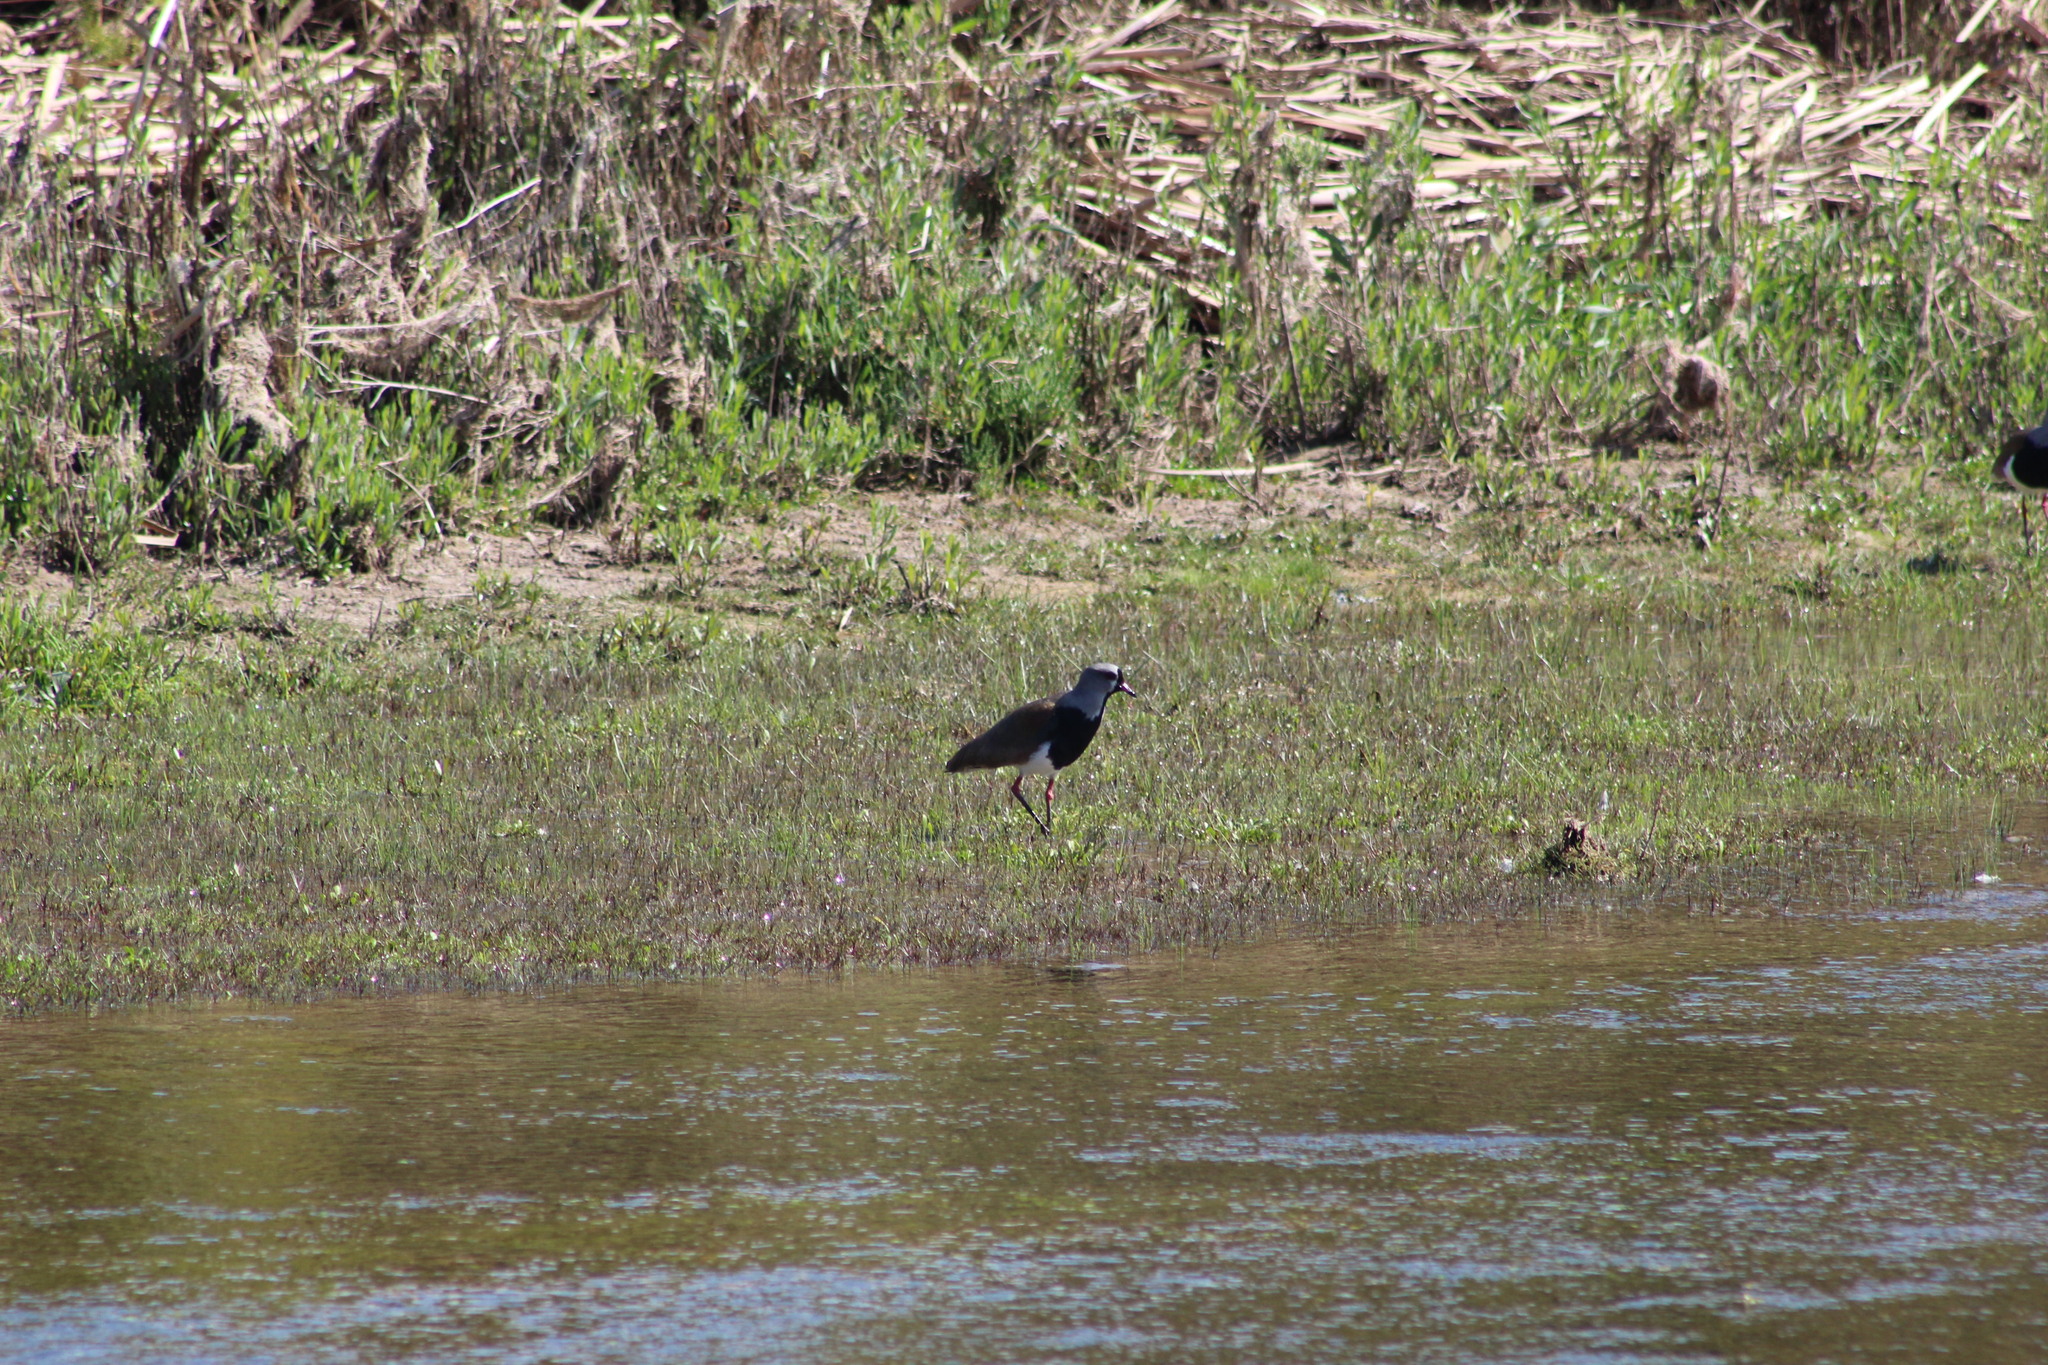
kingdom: Animalia
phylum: Chordata
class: Aves
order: Charadriiformes
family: Charadriidae
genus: Vanellus
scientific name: Vanellus chilensis
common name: Southern lapwing
